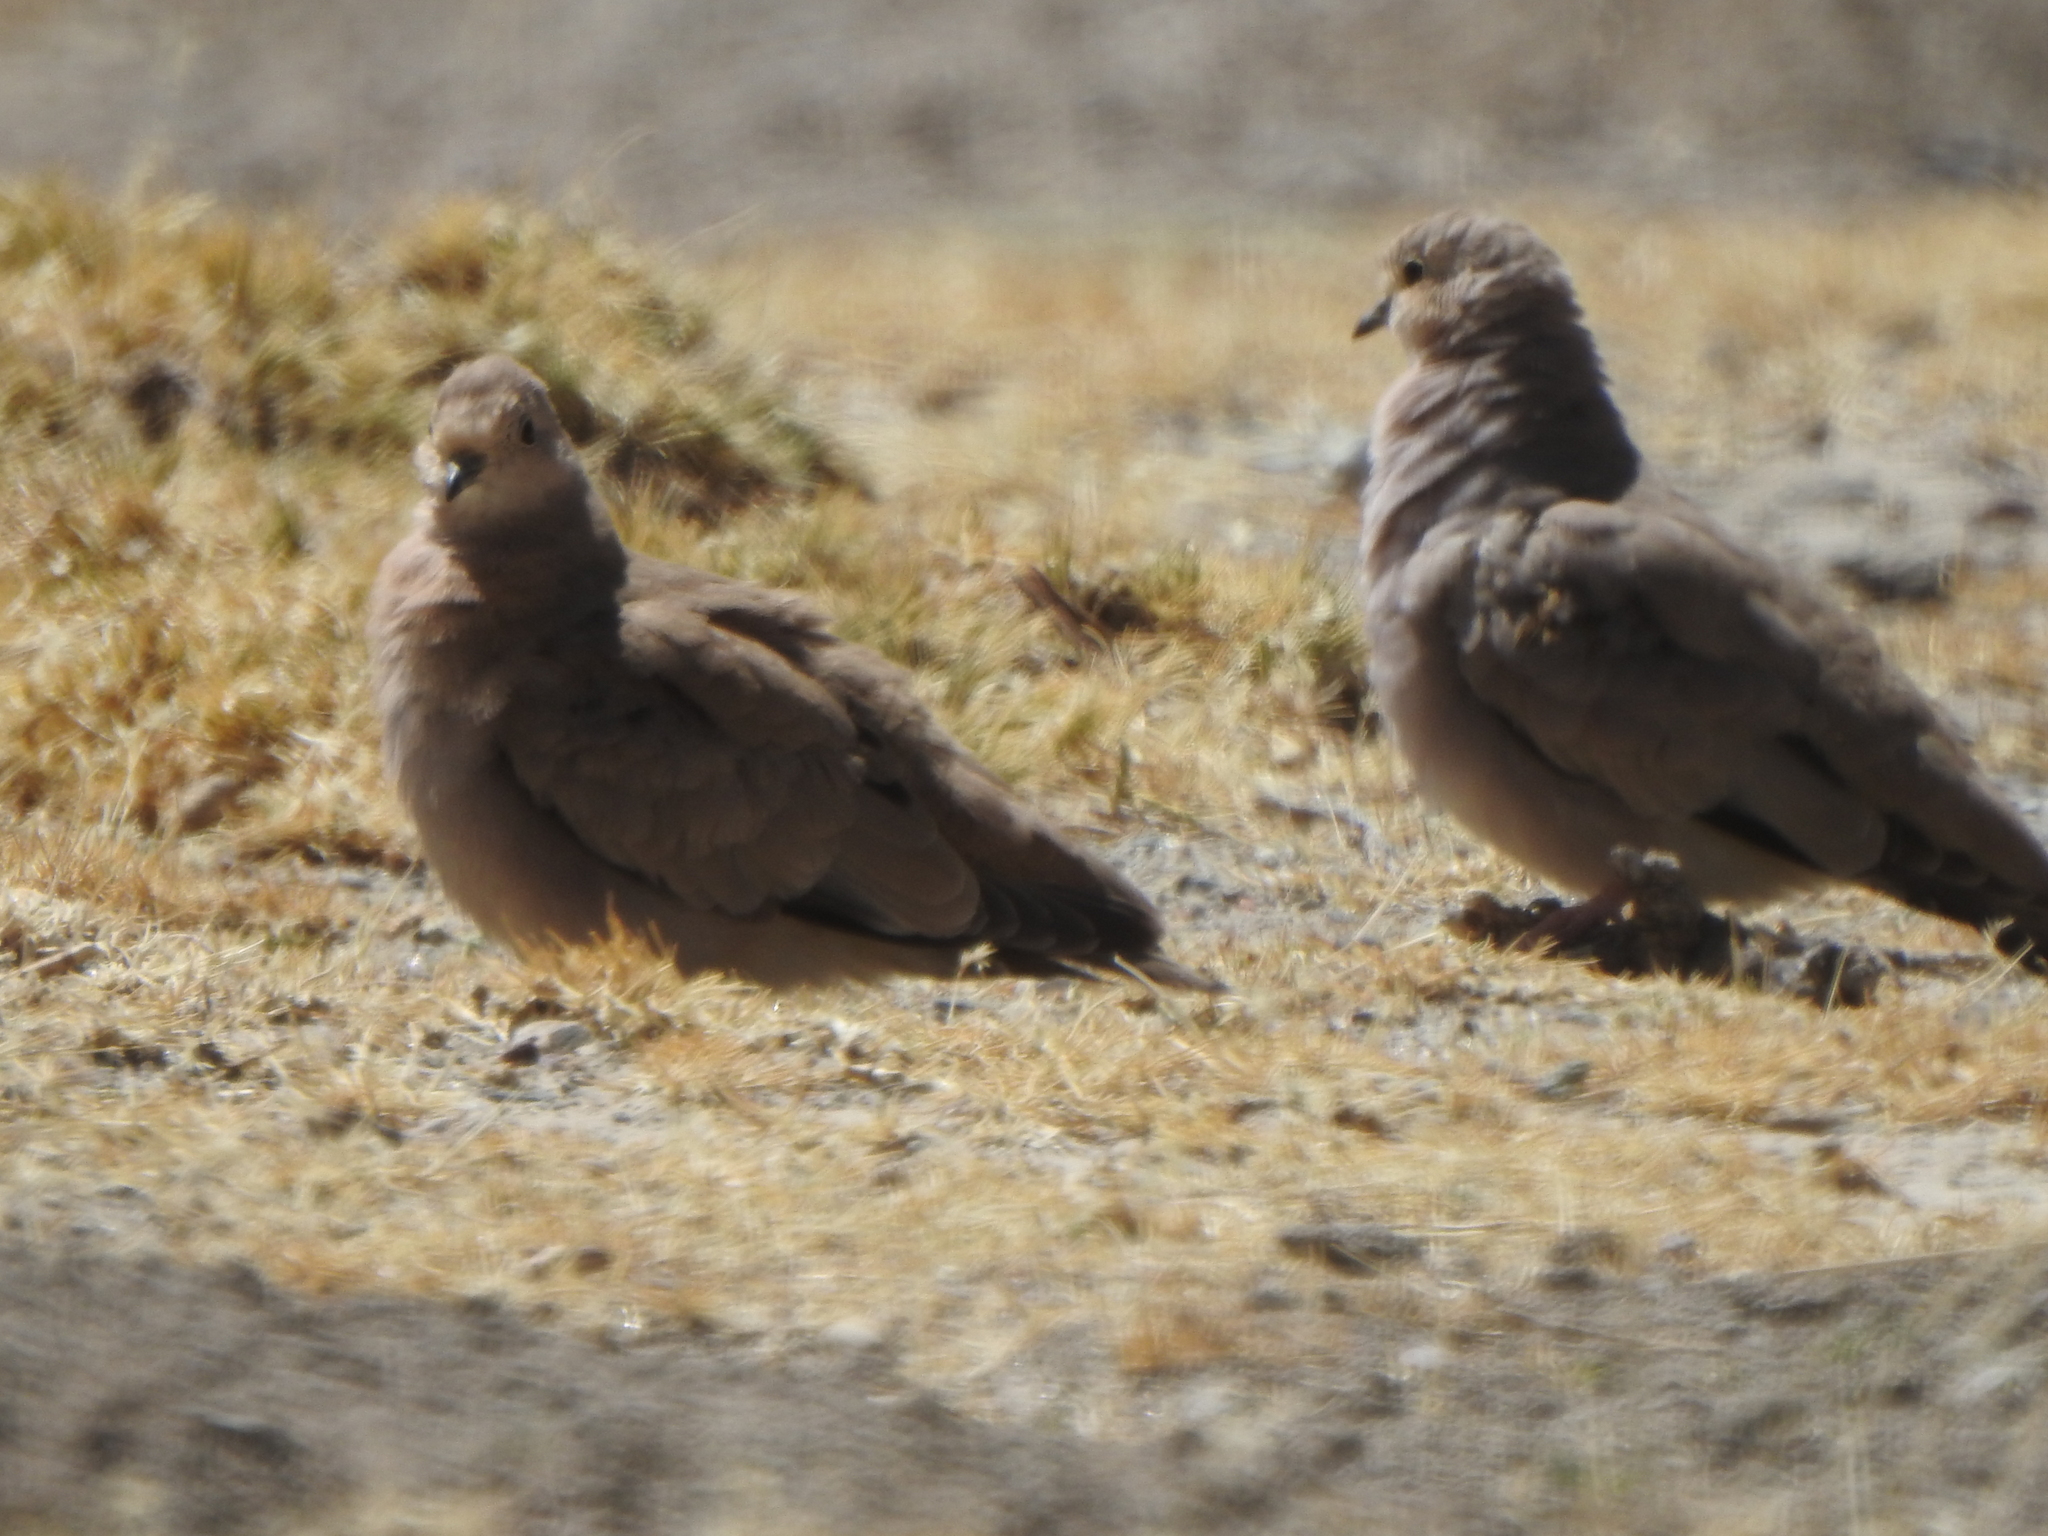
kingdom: Animalia
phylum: Chordata
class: Aves
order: Columbiformes
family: Columbidae
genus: Metriopelia
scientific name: Metriopelia melanoptera
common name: Black-winged ground dove
